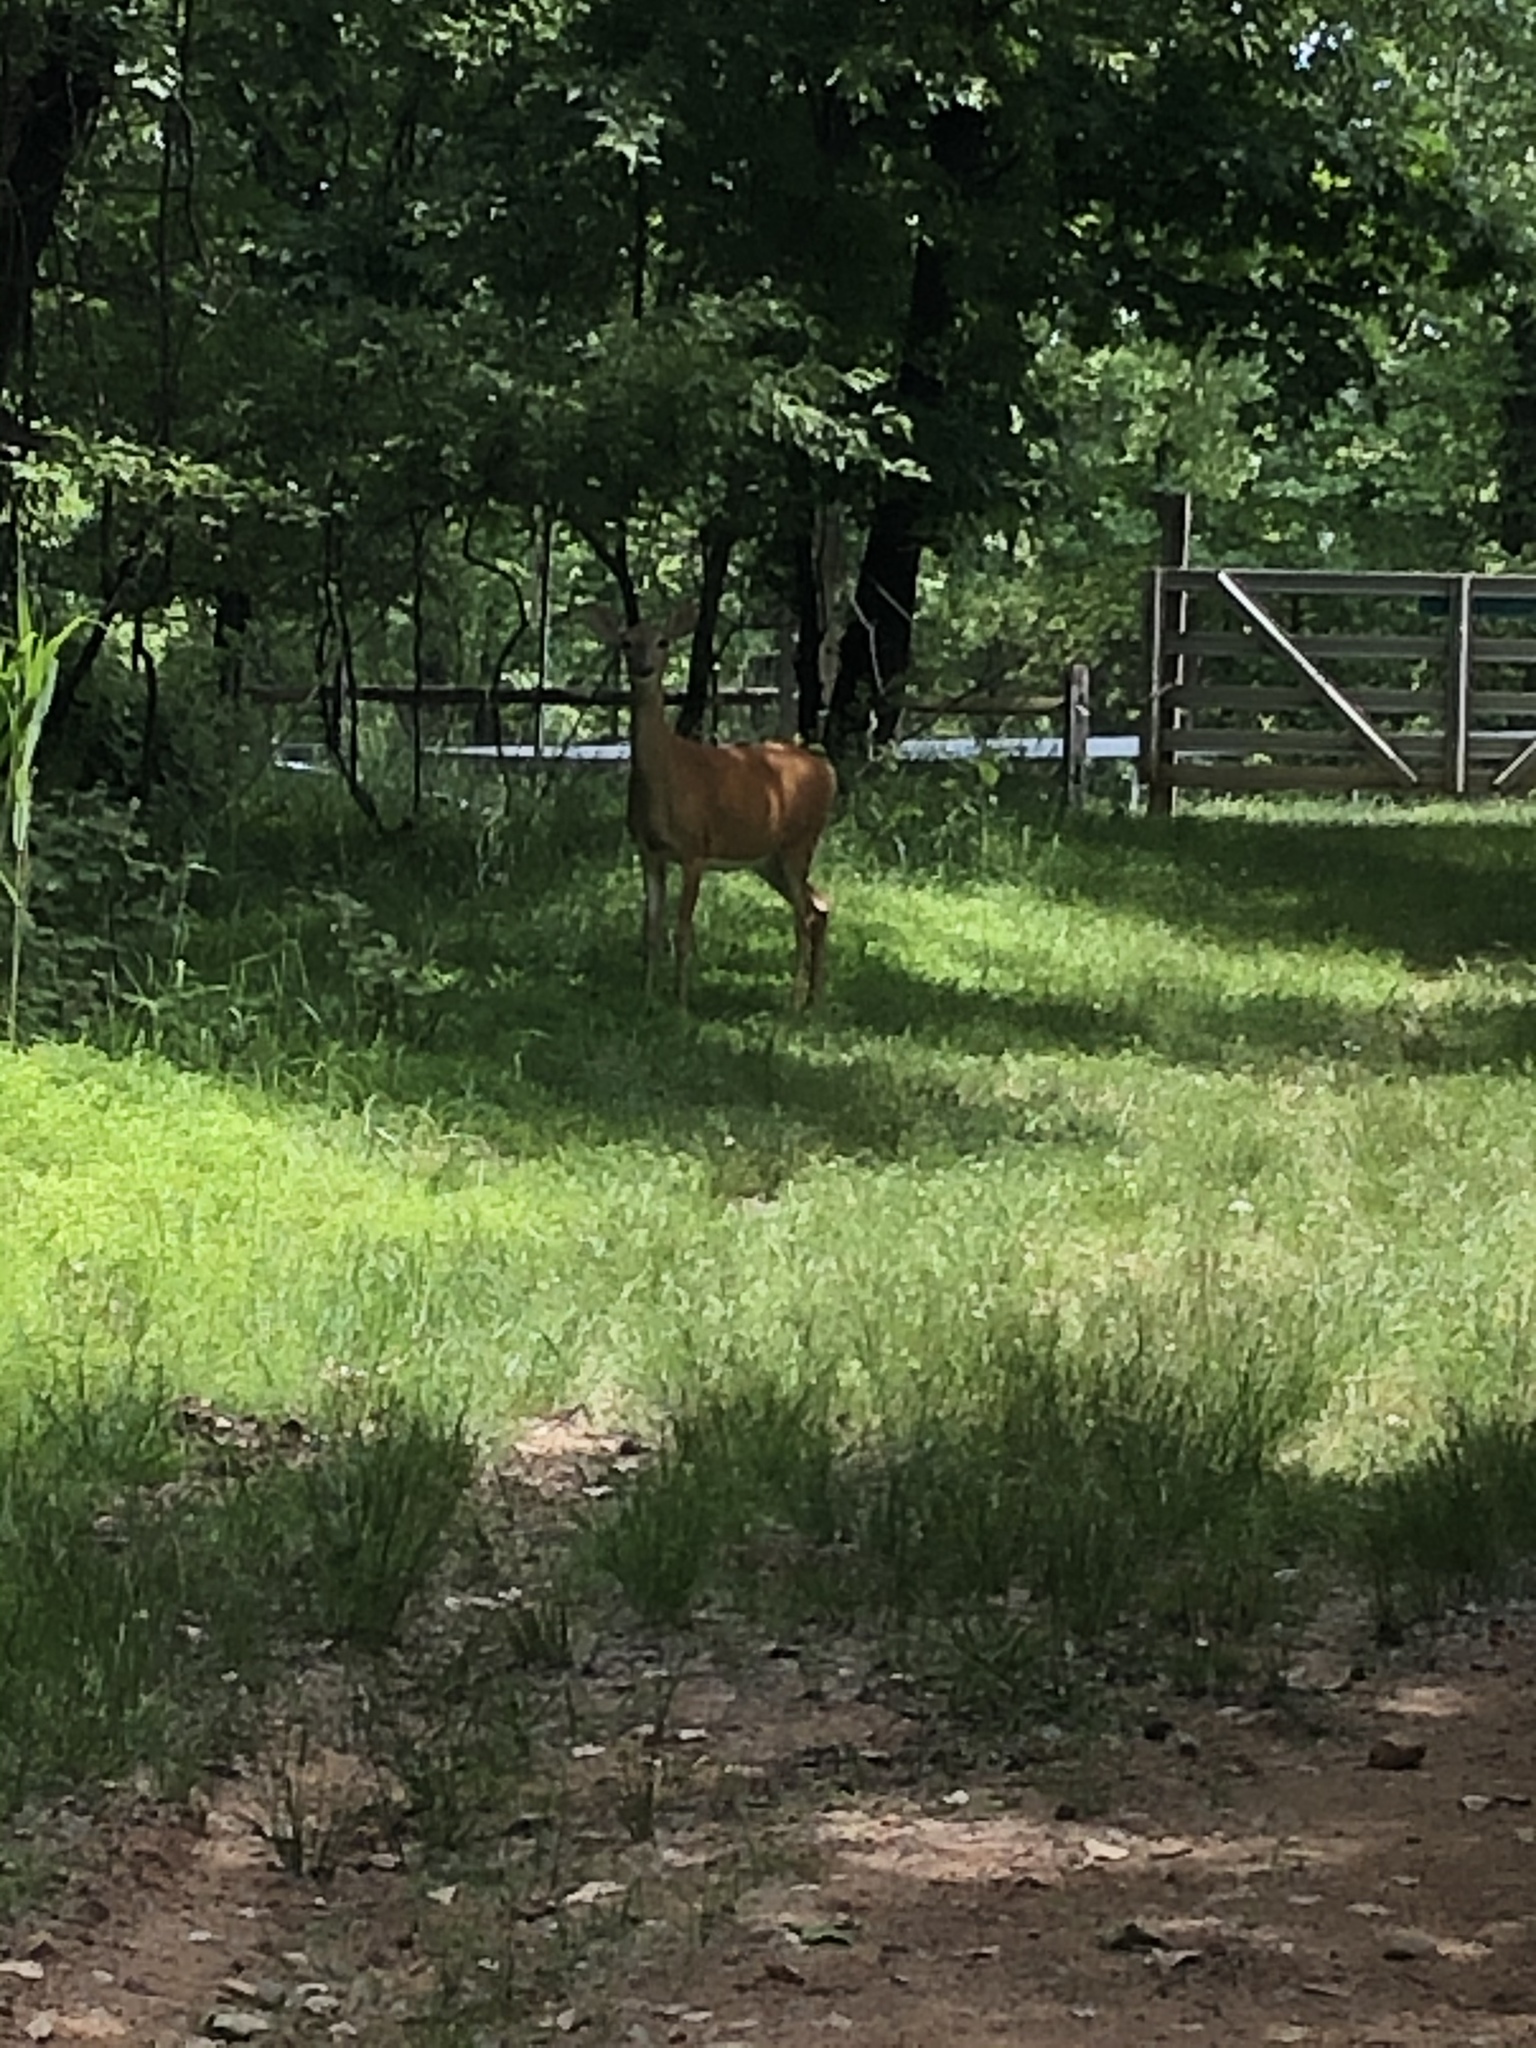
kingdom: Animalia
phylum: Chordata
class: Mammalia
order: Artiodactyla
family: Cervidae
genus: Odocoileus
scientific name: Odocoileus virginianus
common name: White-tailed deer
